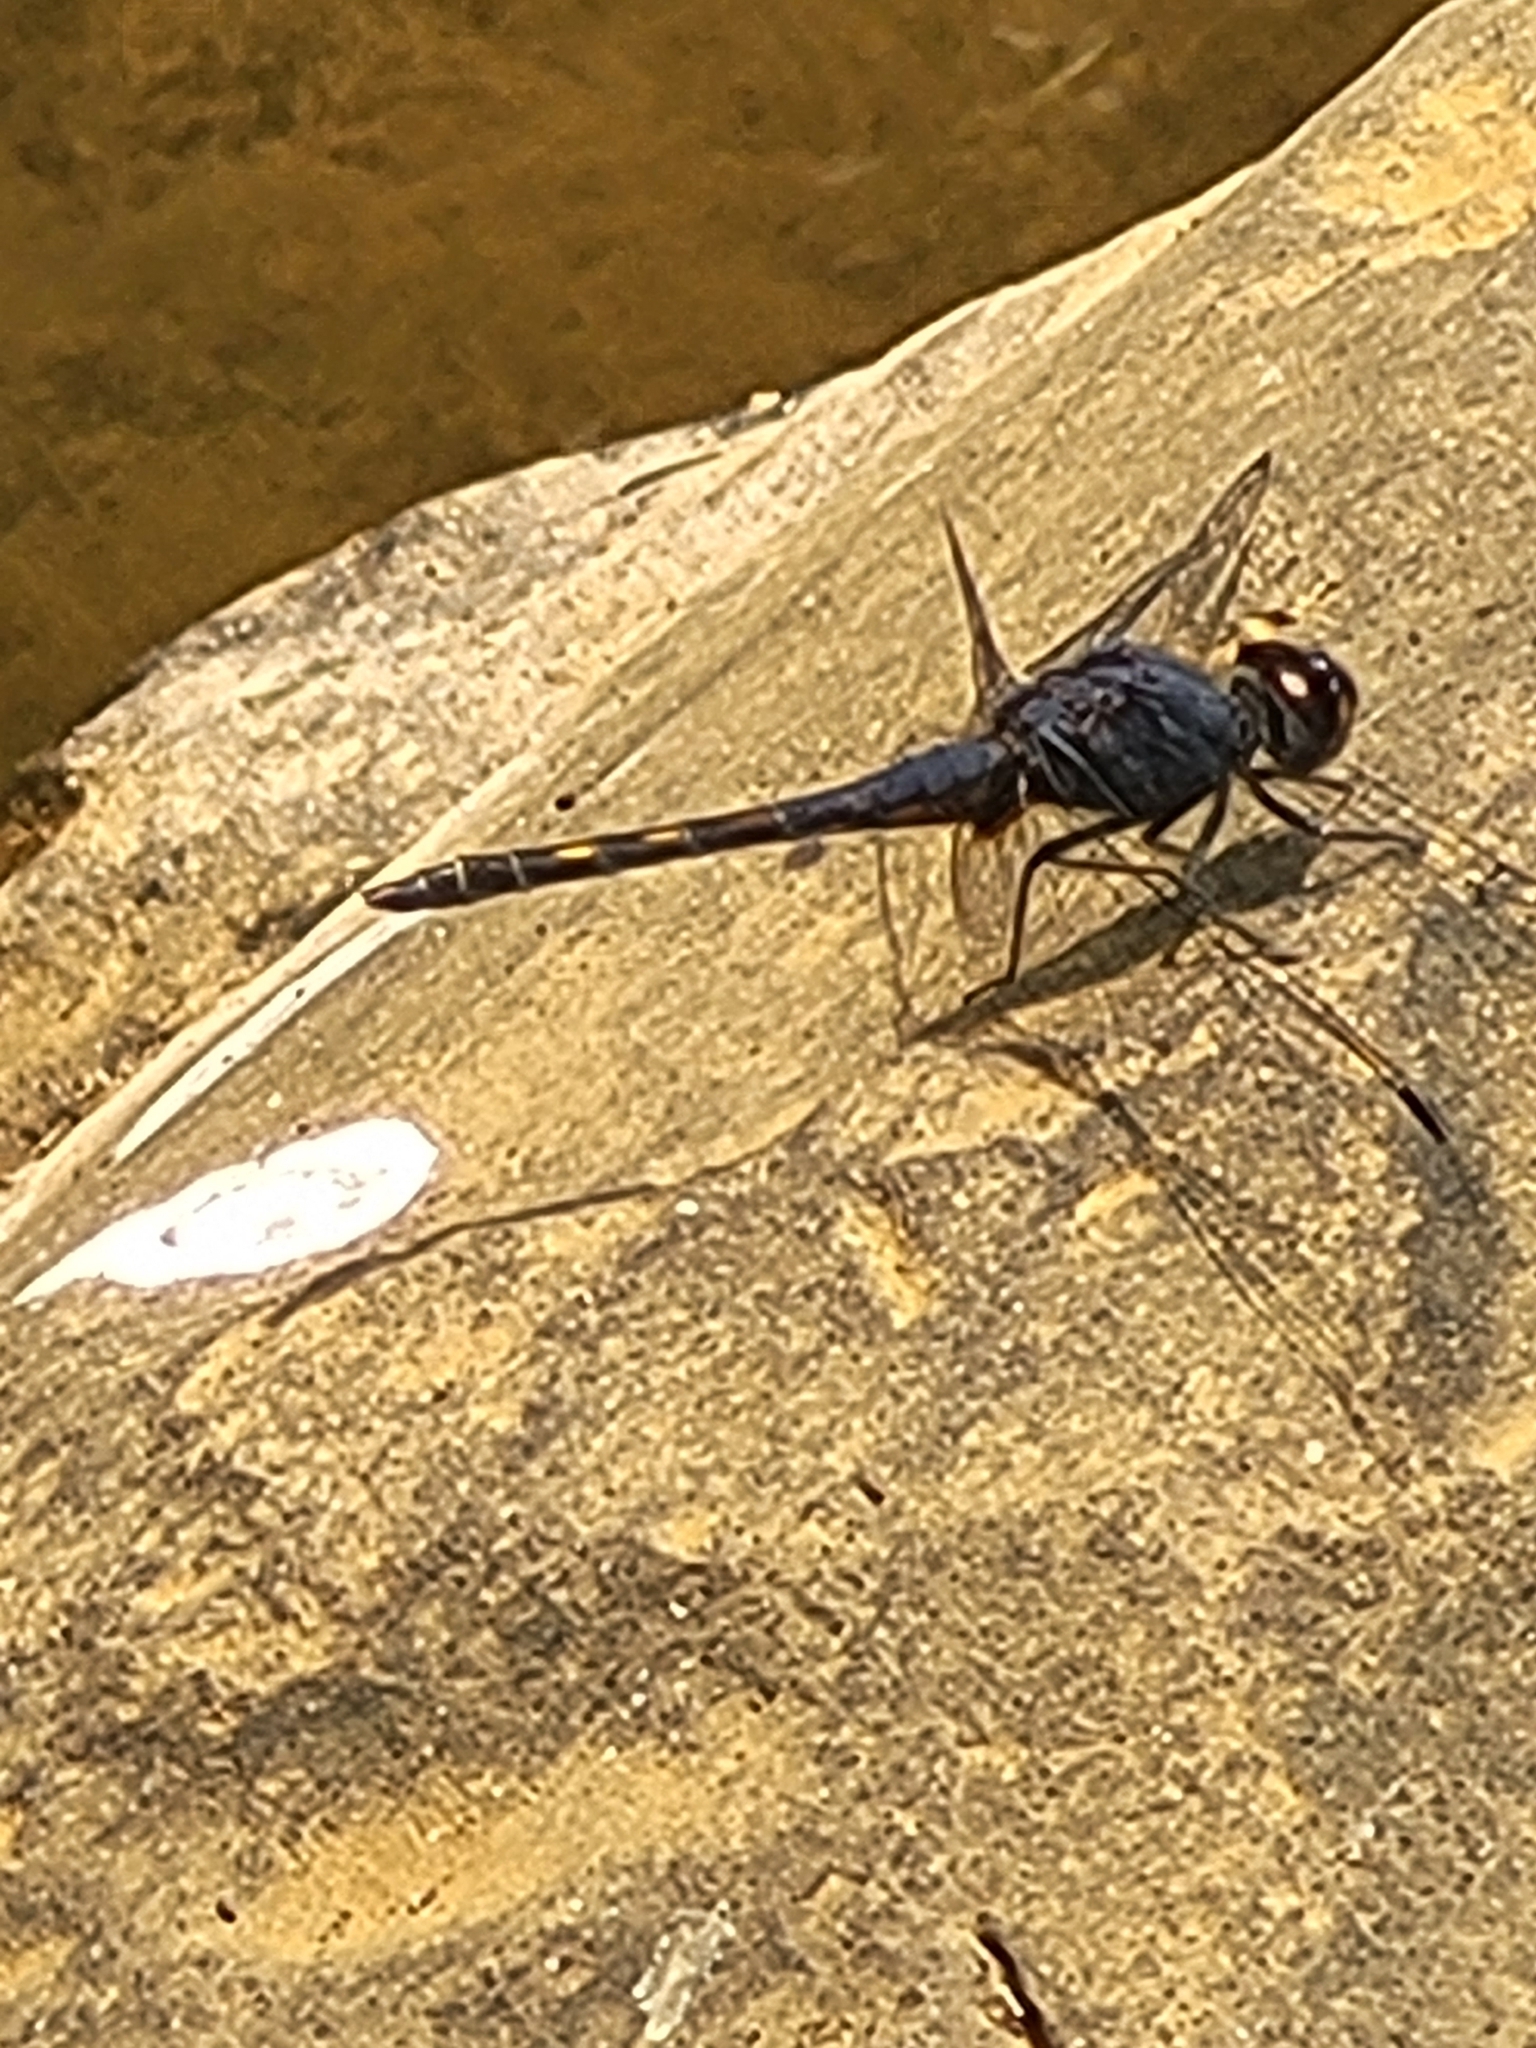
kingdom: Animalia
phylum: Arthropoda
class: Insecta
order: Odonata
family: Libellulidae
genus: Trithemis
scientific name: Trithemis festiva
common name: Indigo dropwing
